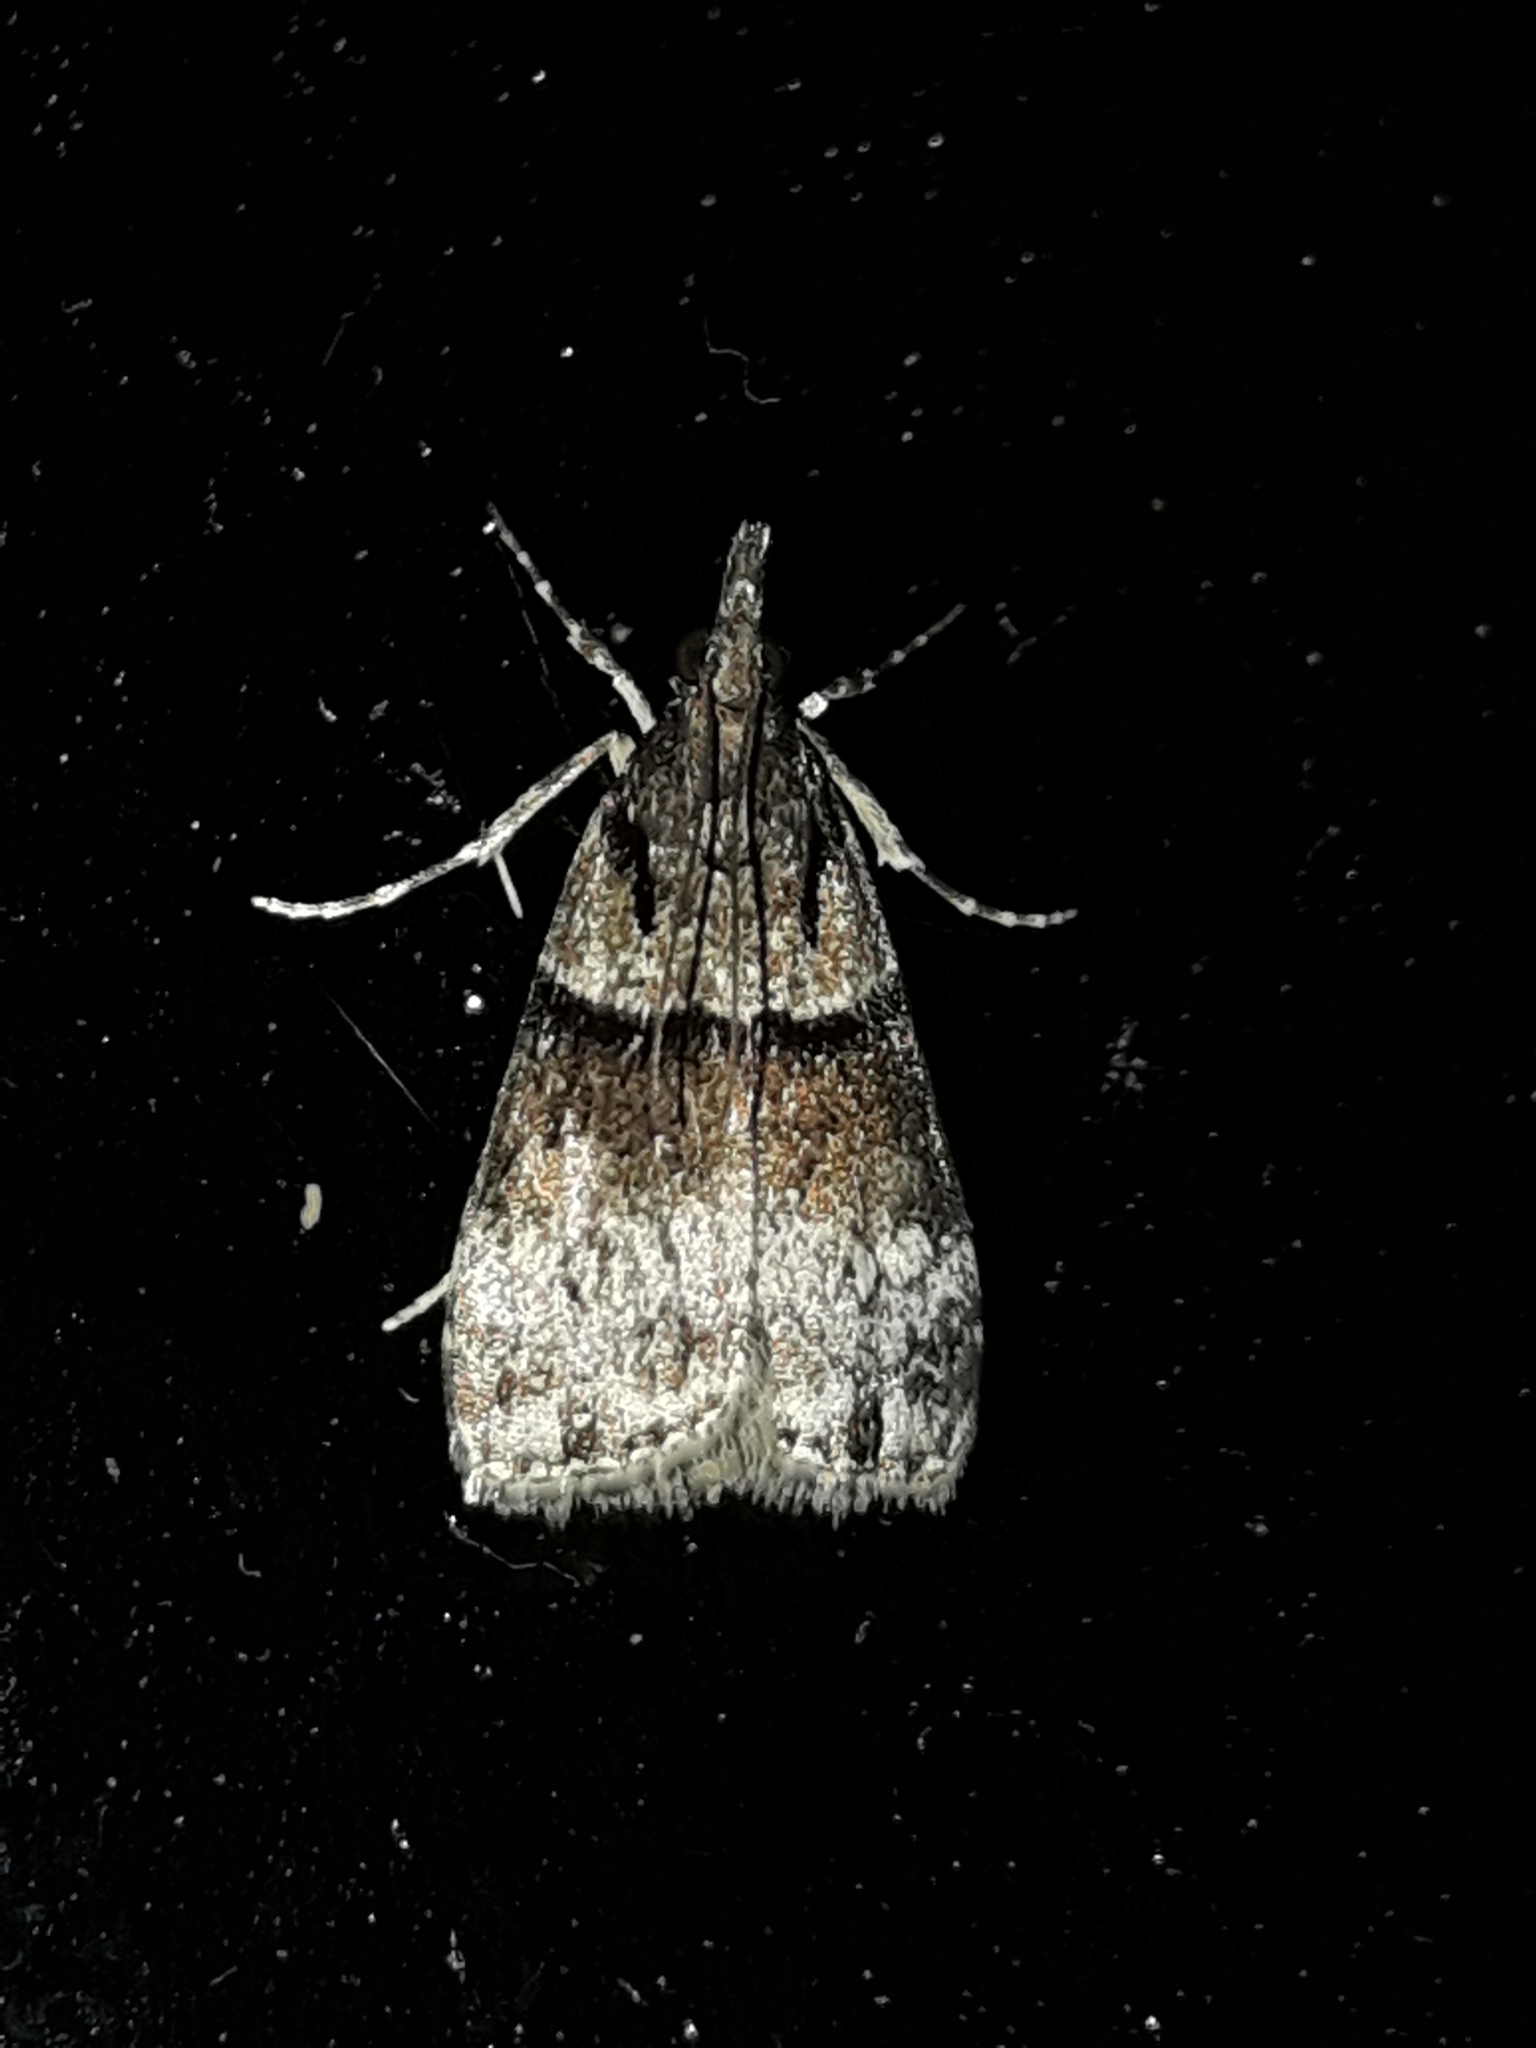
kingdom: Animalia
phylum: Arthropoda
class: Insecta
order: Lepidoptera
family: Crambidae
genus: Eudonia
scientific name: Eudonia colpota
